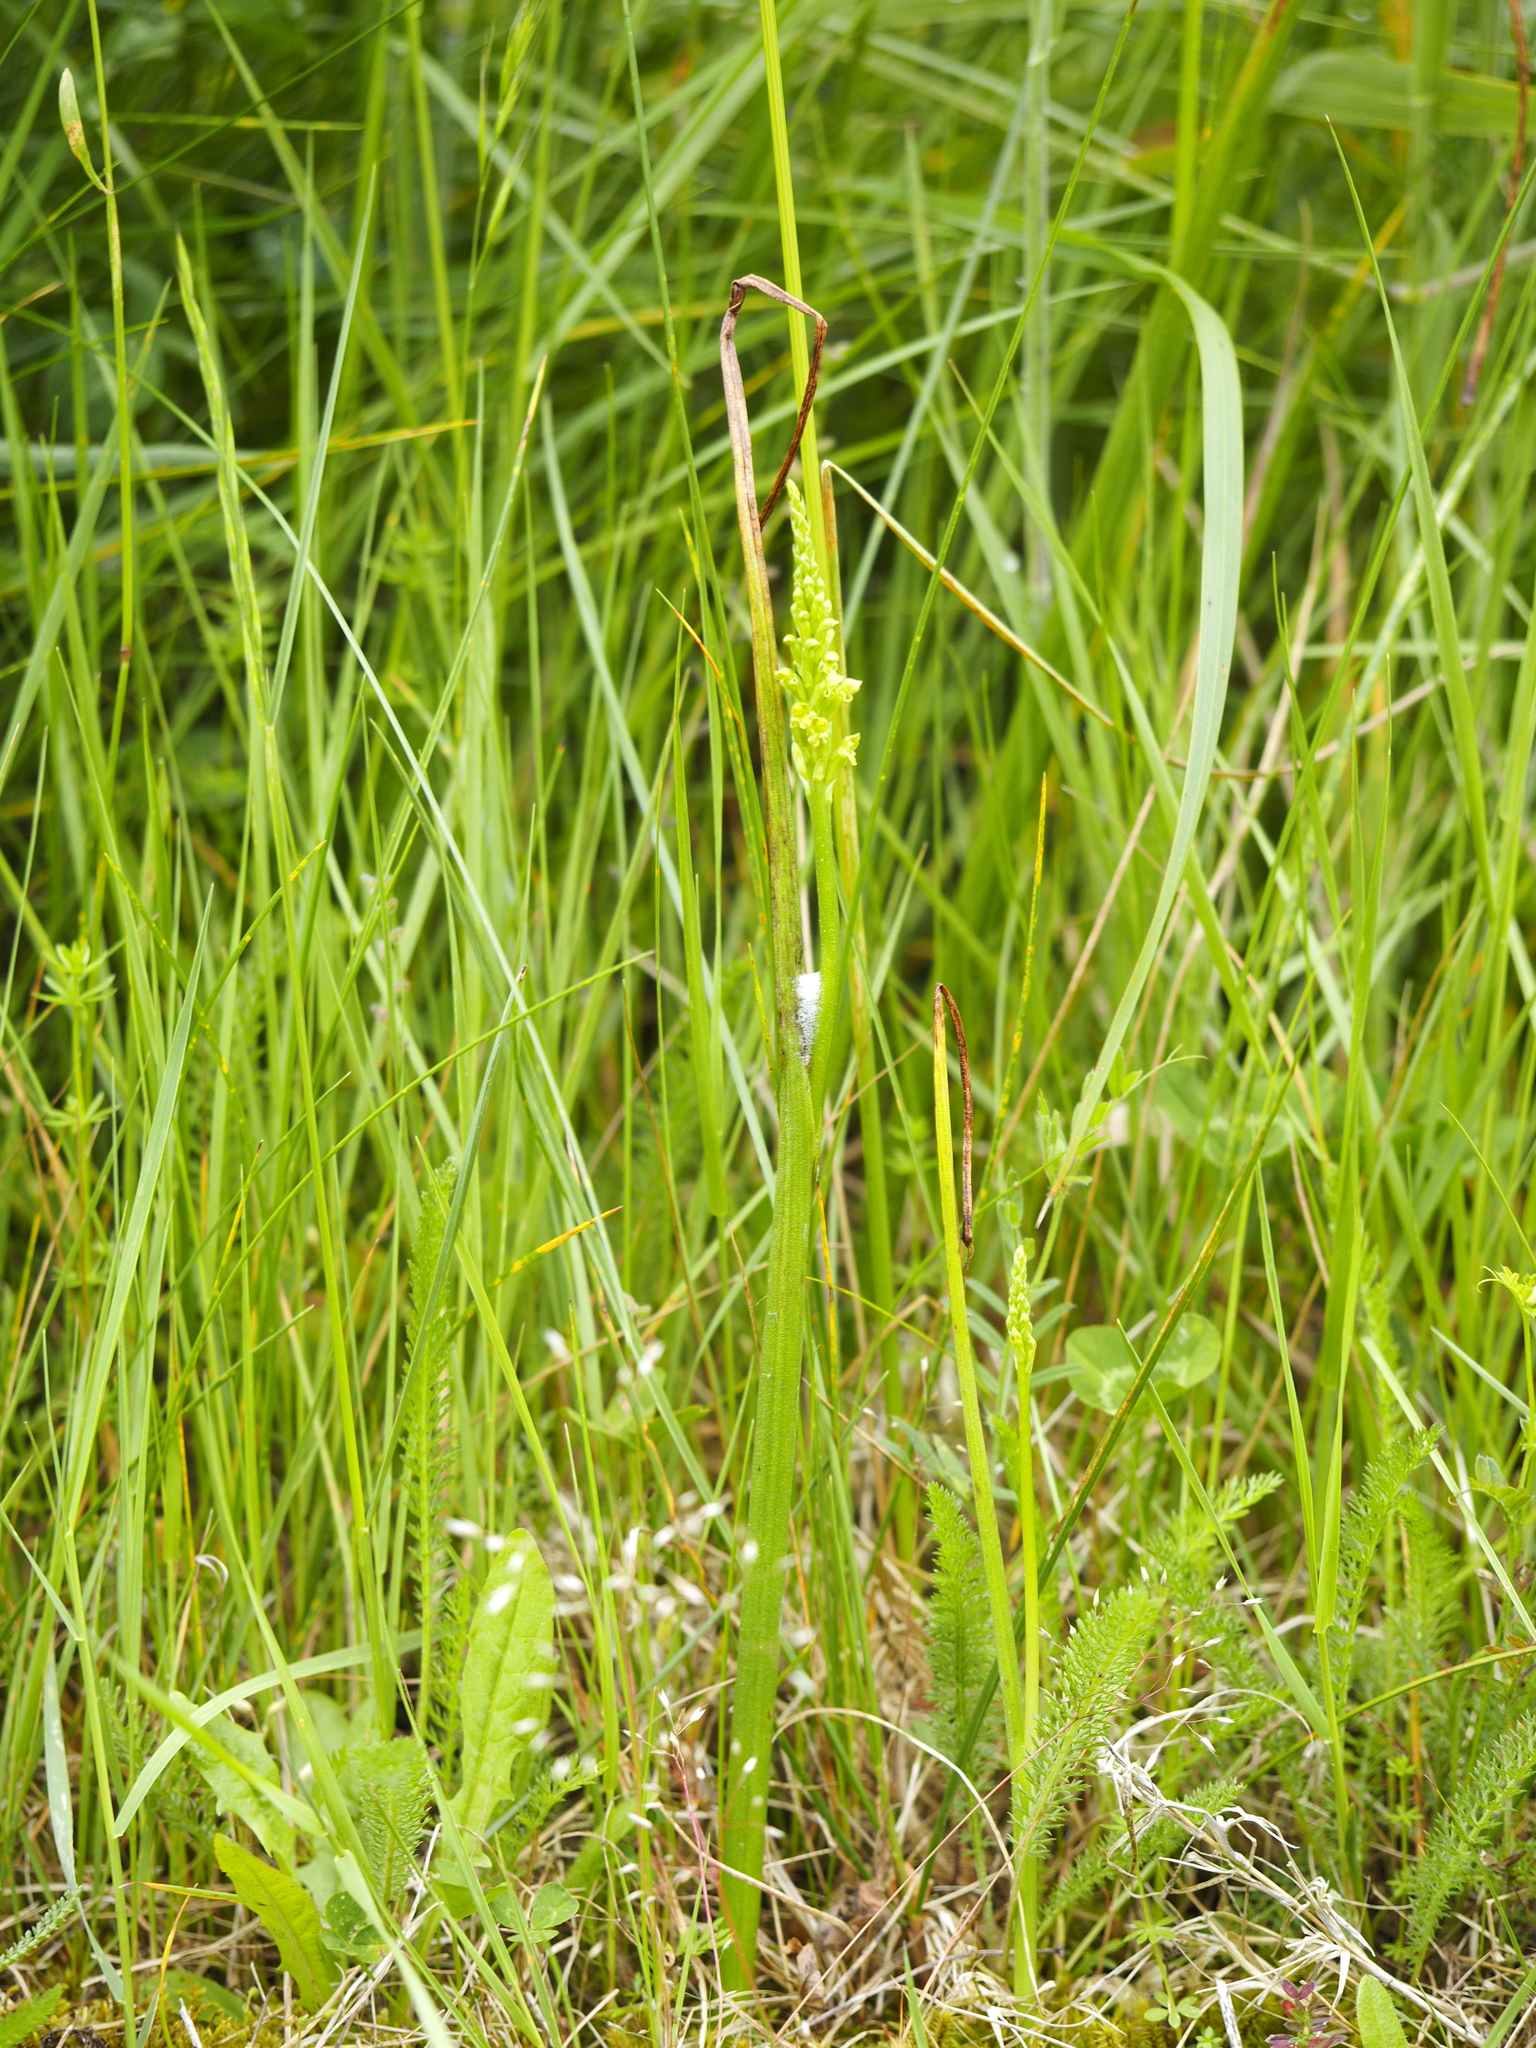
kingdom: Plantae
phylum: Tracheophyta
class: Liliopsida
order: Asparagales
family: Orchidaceae
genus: Microtis
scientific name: Microtis unifolia
